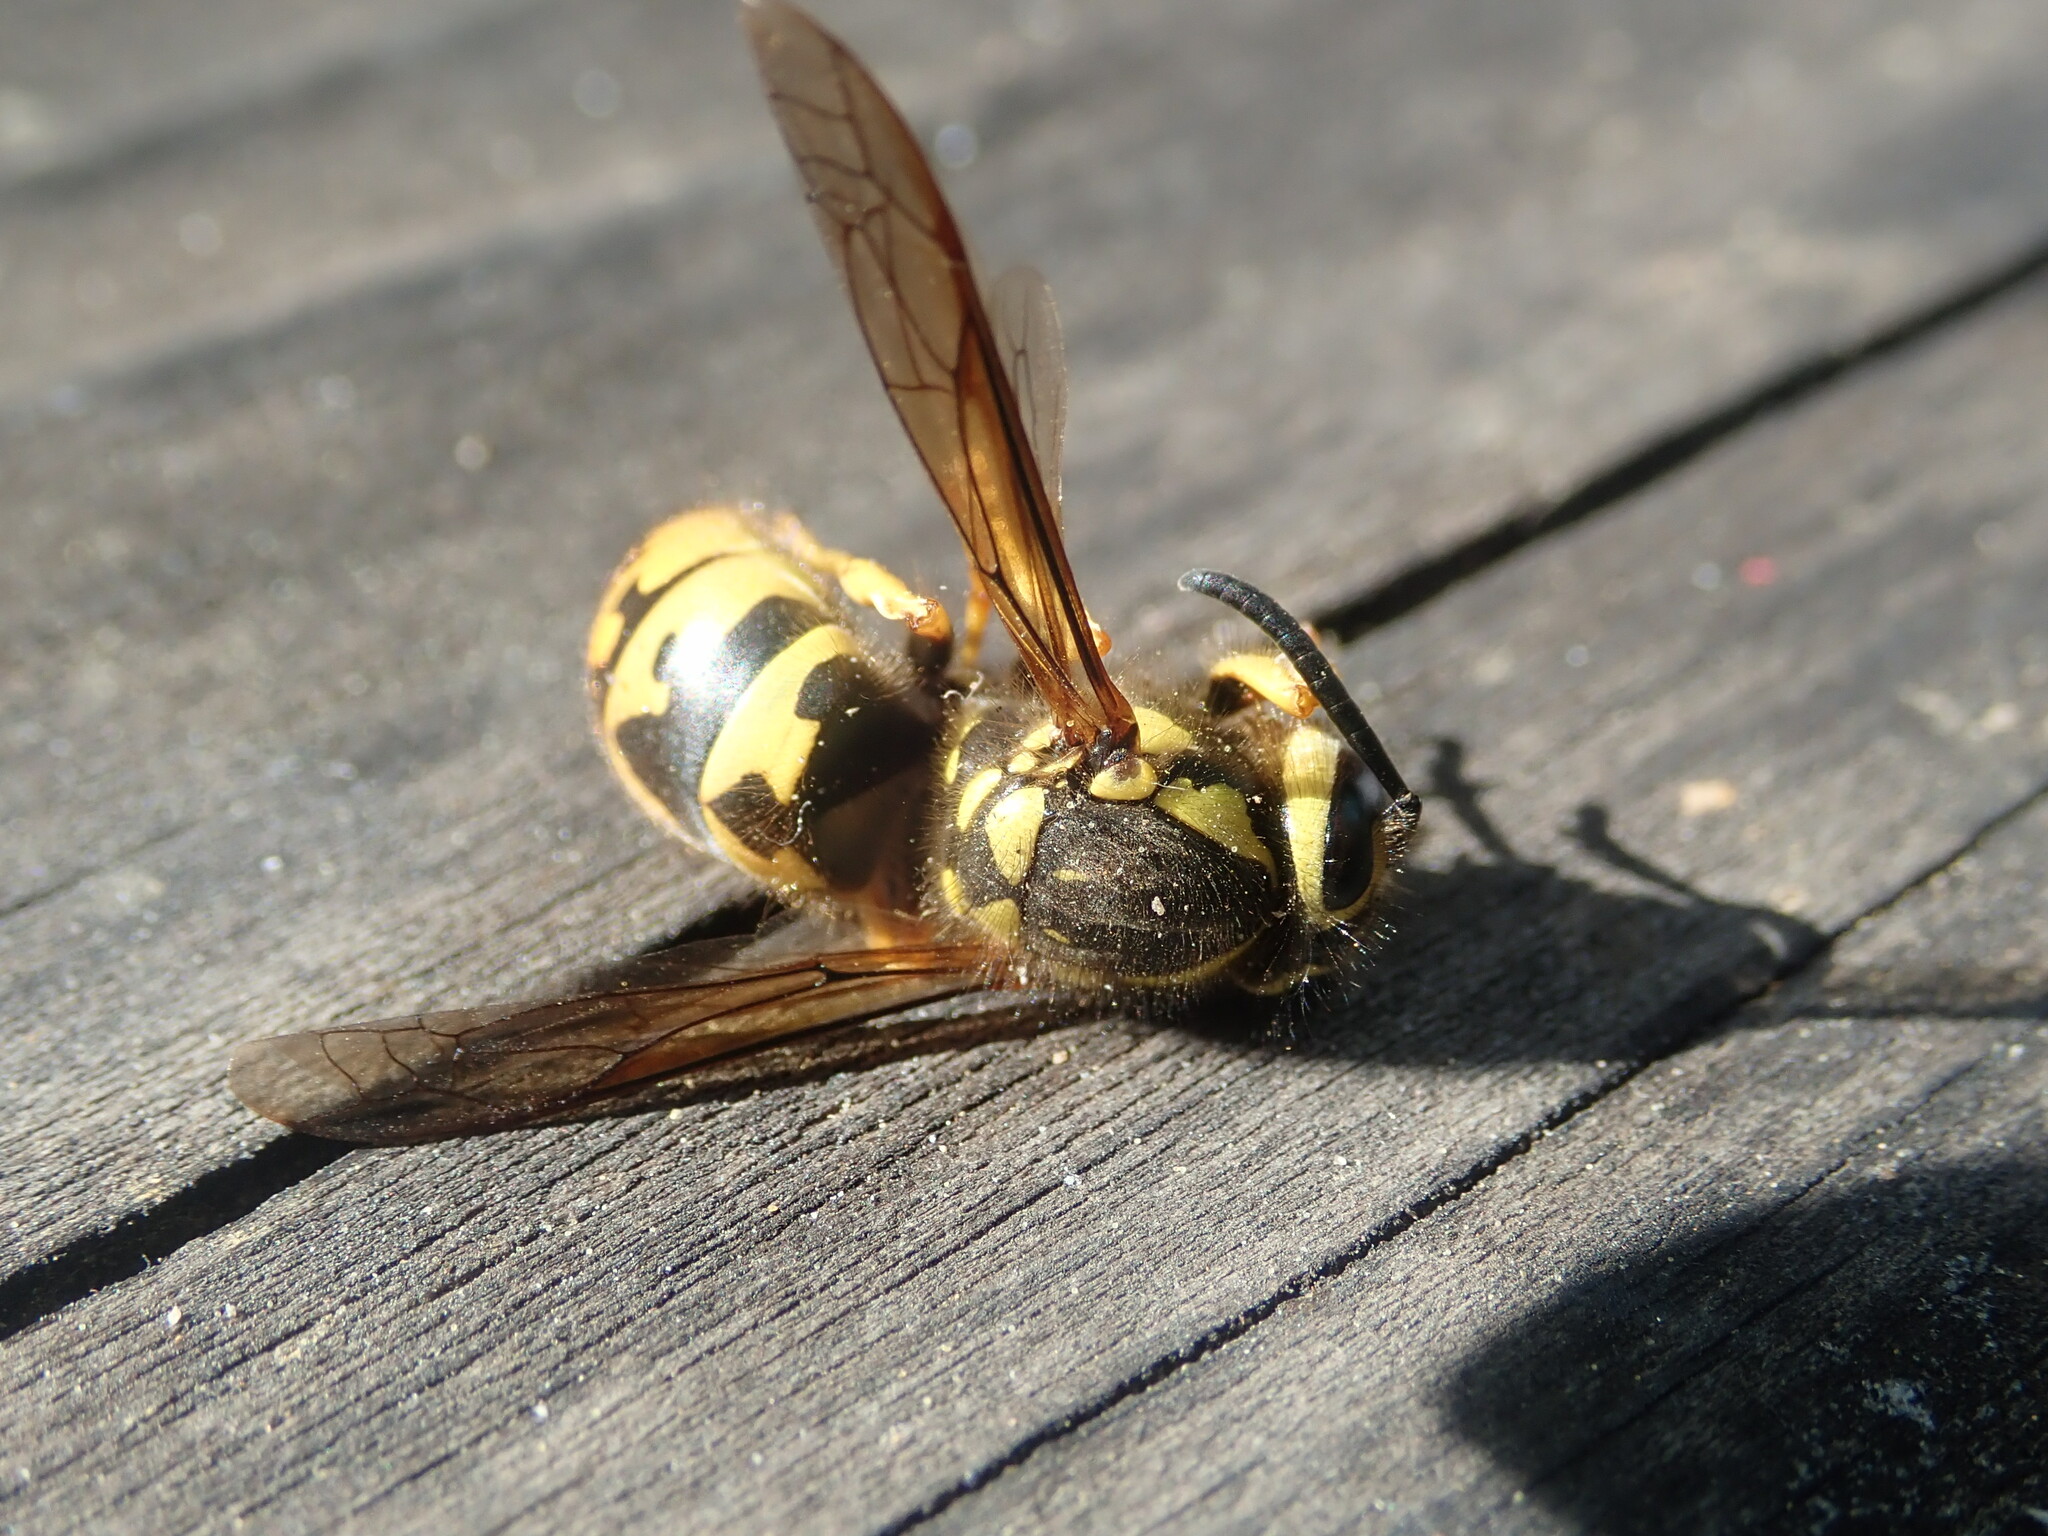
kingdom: Animalia
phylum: Arthropoda
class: Insecta
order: Hymenoptera
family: Vespidae
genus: Vespula
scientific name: Vespula pensylvanica
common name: Western yellowjacket
